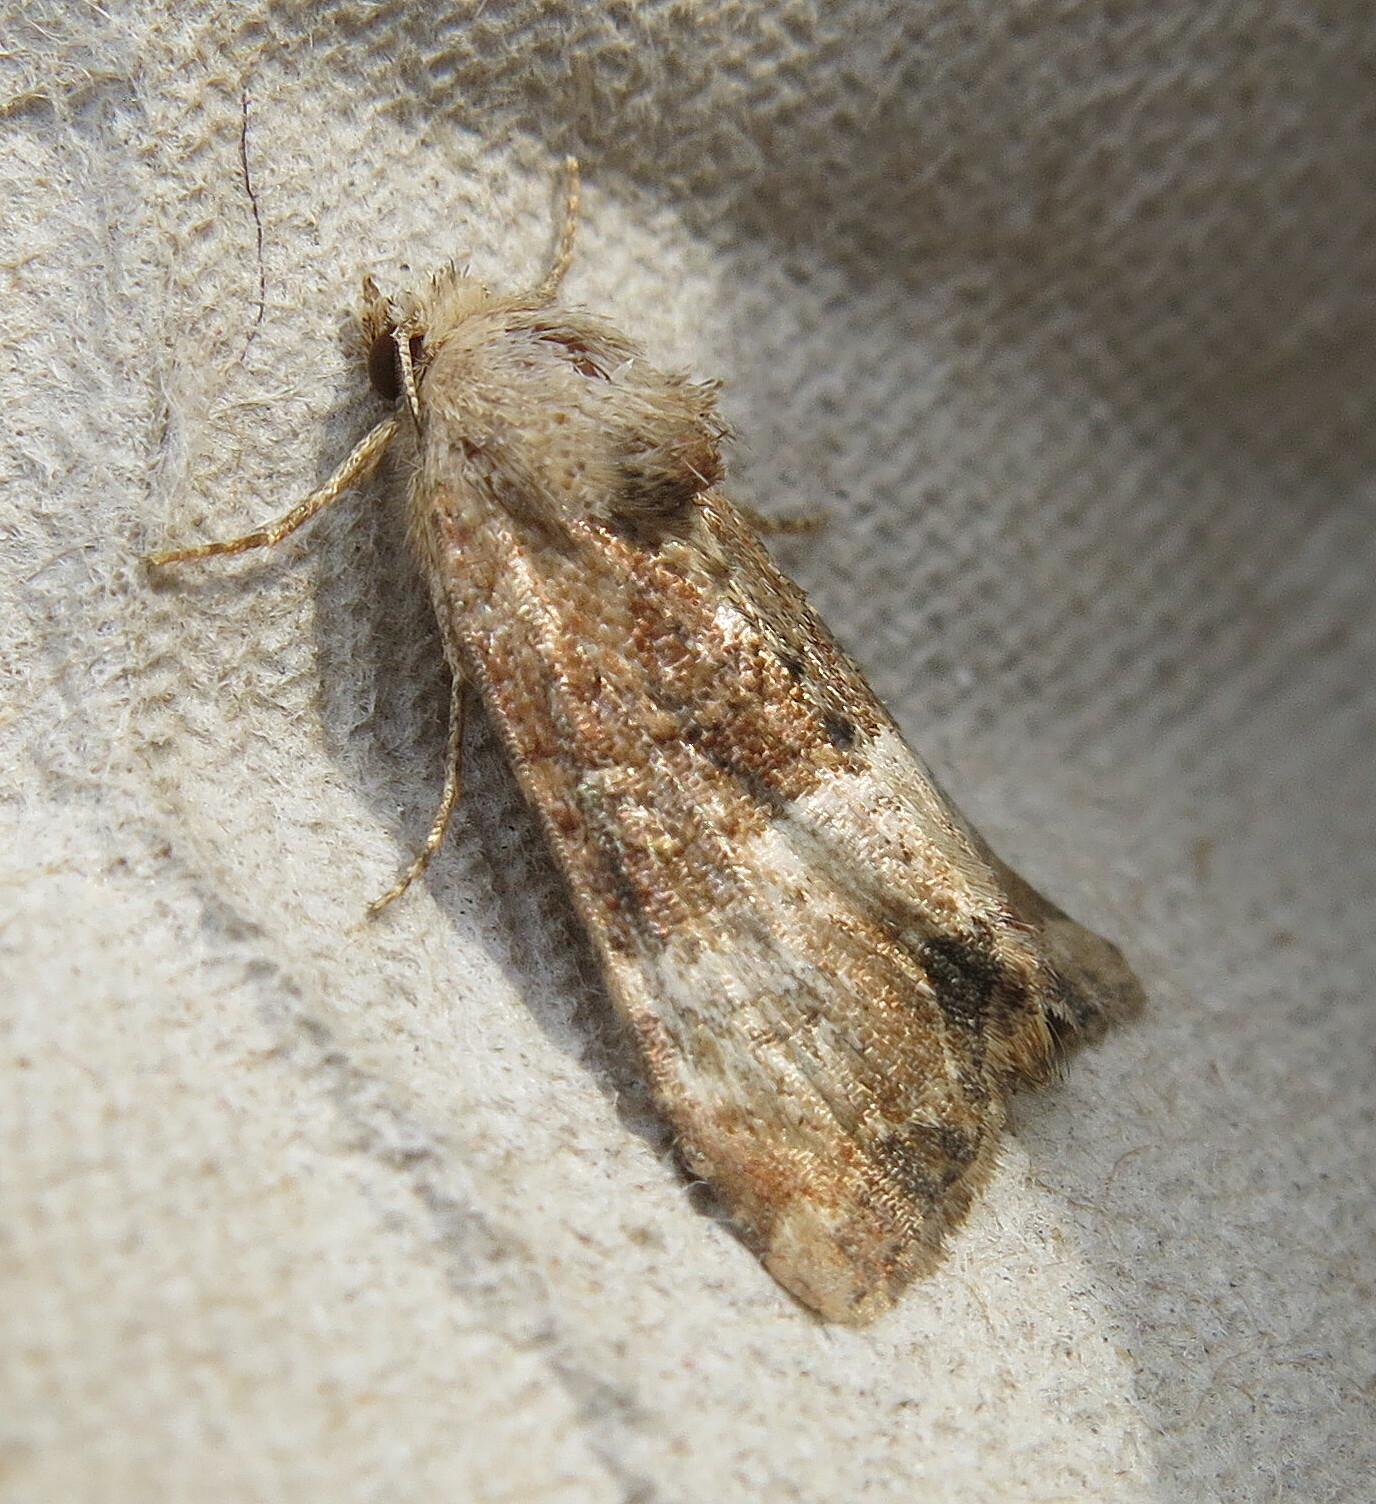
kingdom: Animalia
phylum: Arthropoda
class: Insecta
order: Lepidoptera
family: Noctuidae
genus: Mesoligia
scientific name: Mesoligia furuncula
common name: Cloaked minor
